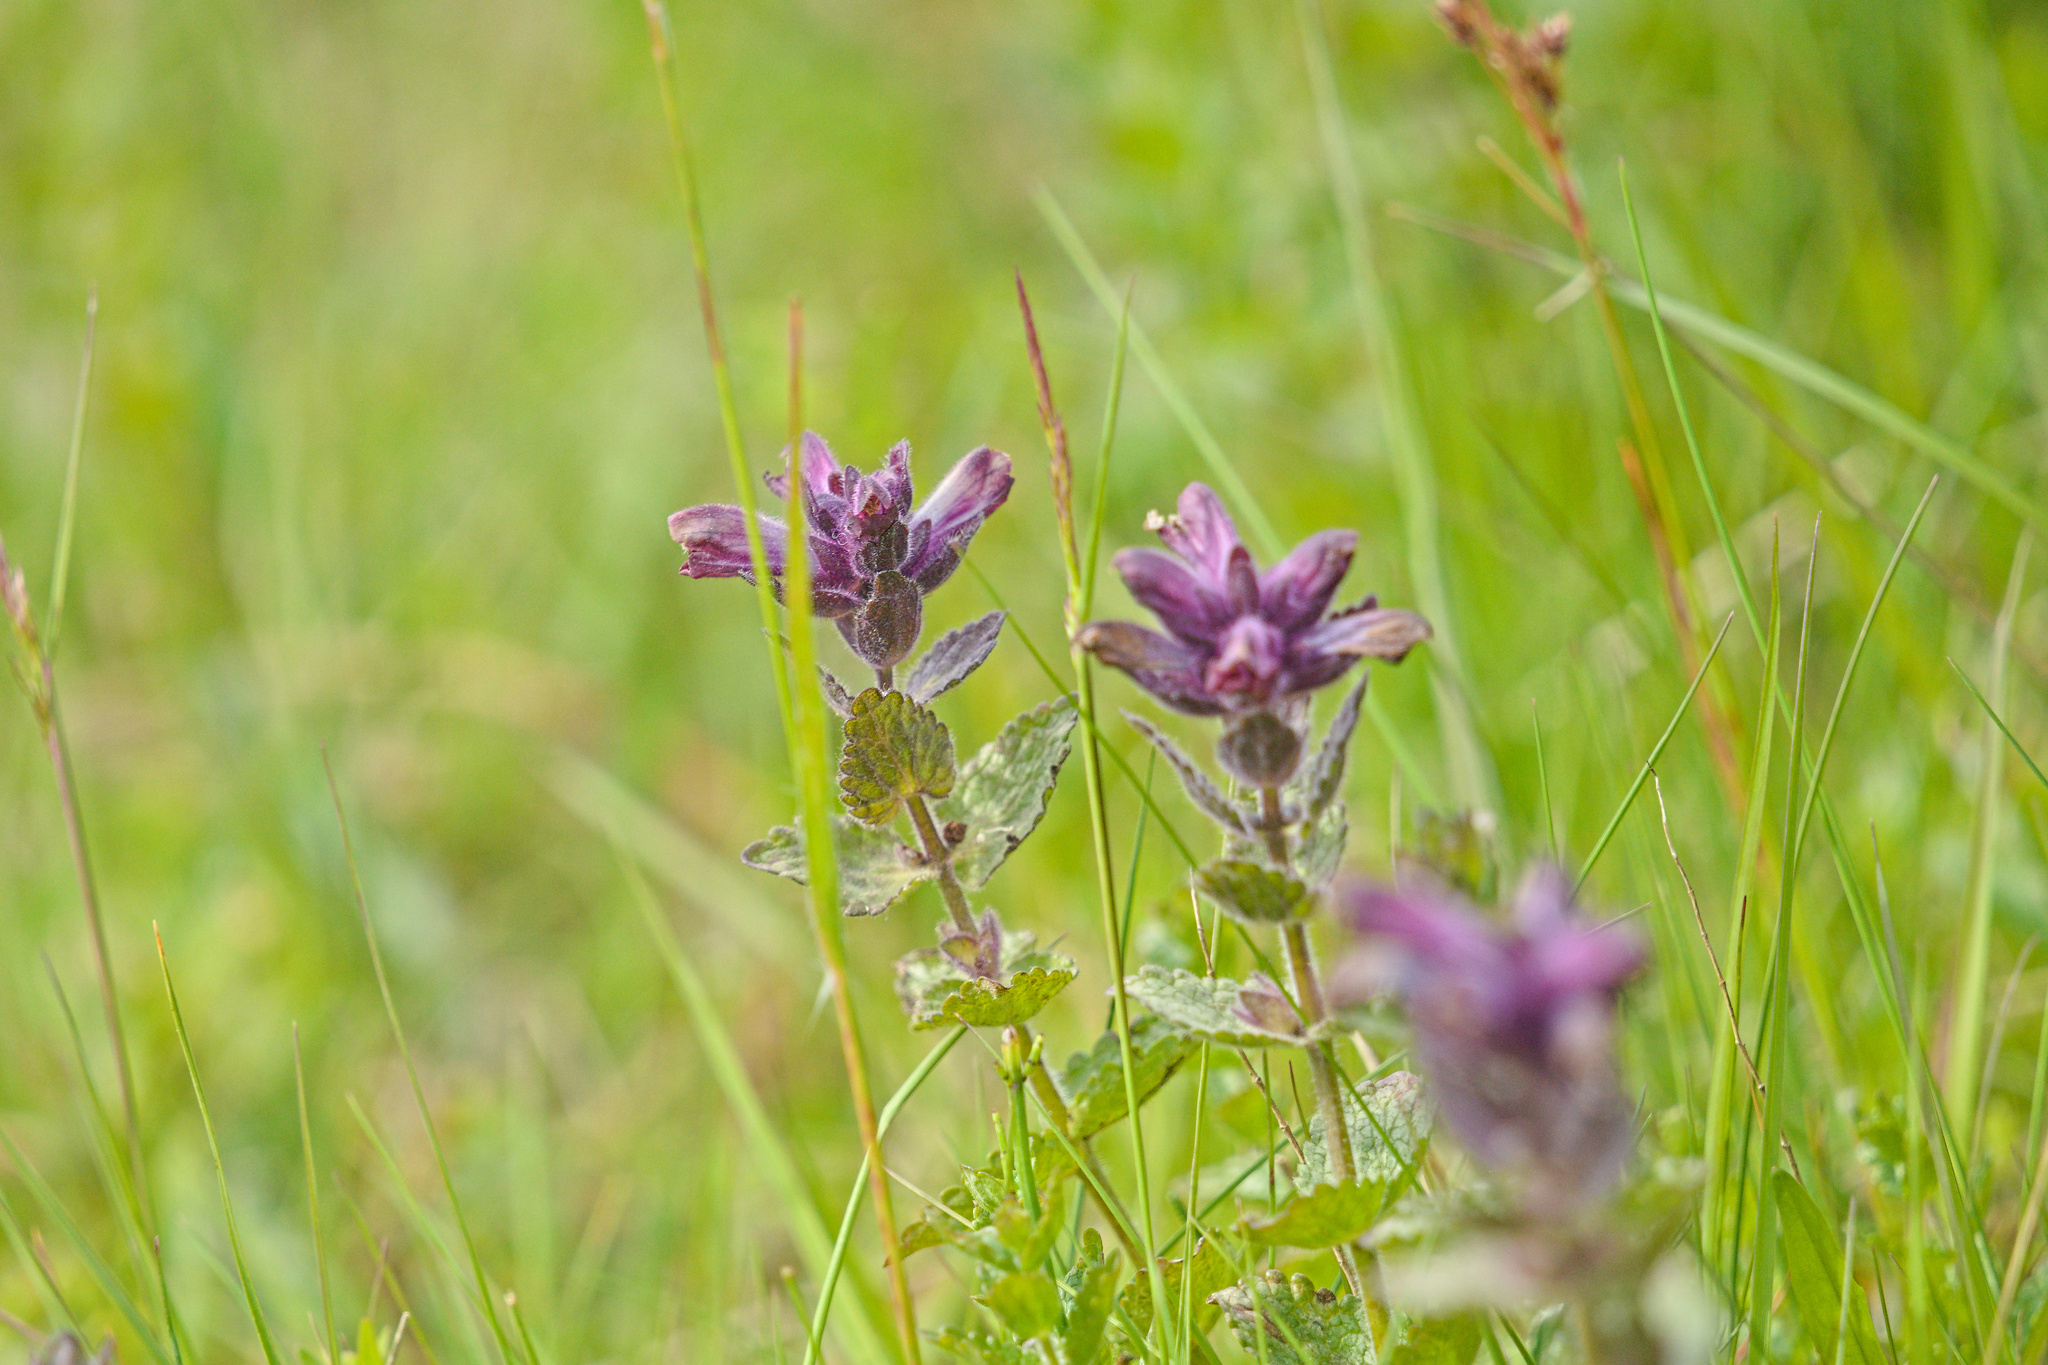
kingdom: Plantae
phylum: Tracheophyta
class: Magnoliopsida
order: Lamiales
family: Orobanchaceae
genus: Bartsia
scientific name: Bartsia alpina
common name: Alpine bartsia
